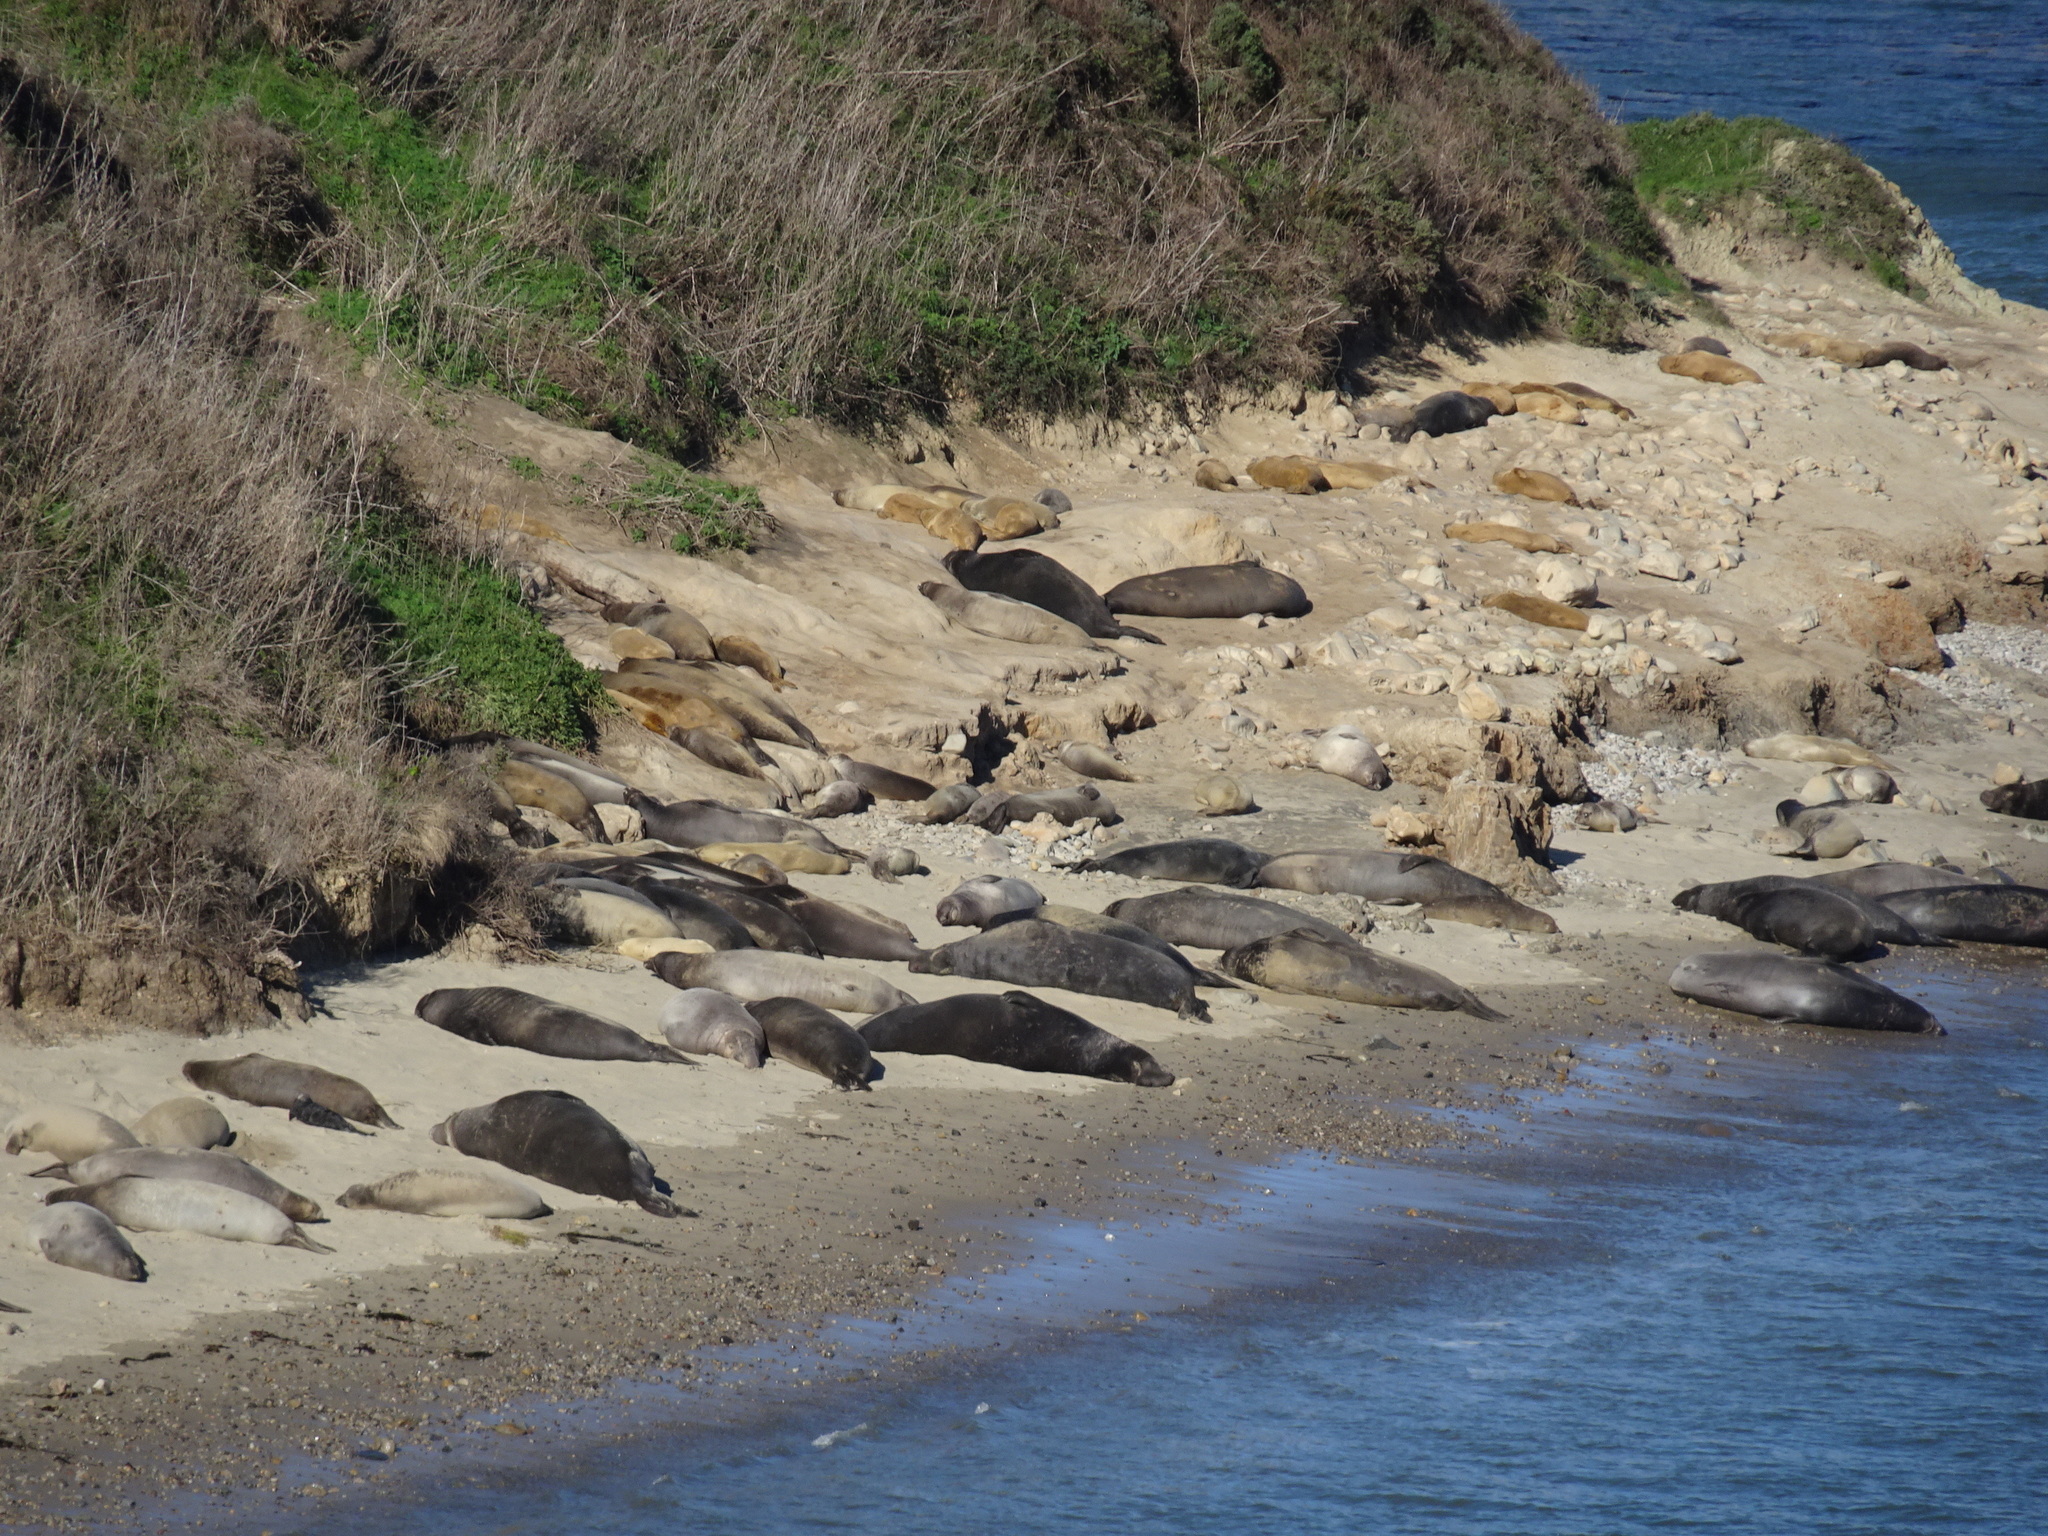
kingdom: Animalia
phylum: Chordata
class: Mammalia
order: Carnivora
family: Phocidae
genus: Mirounga
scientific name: Mirounga angustirostris
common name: Northern elephant seal
